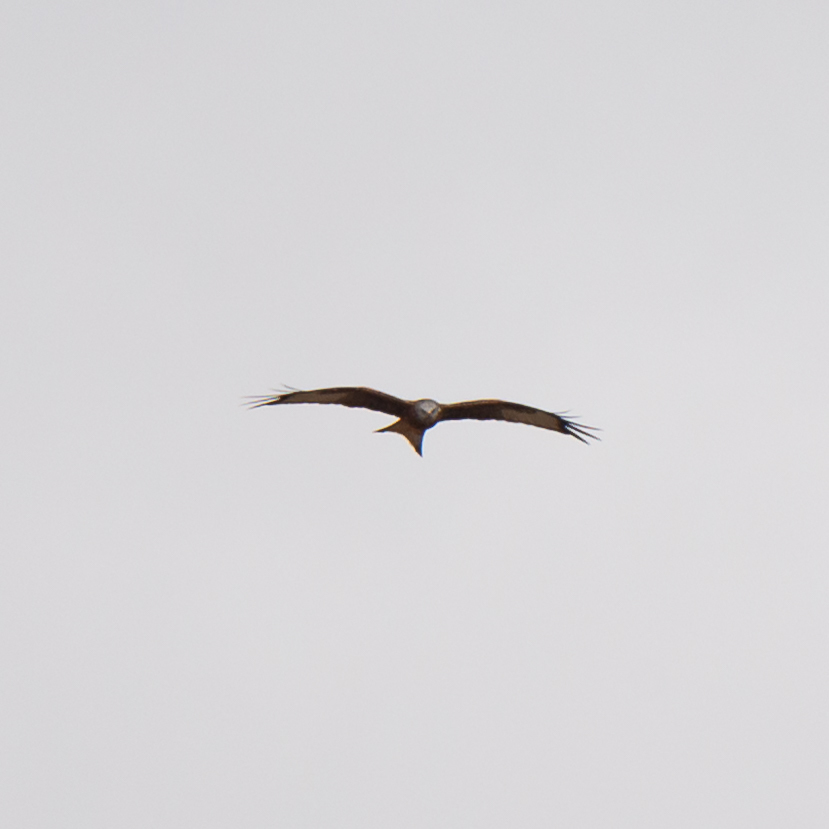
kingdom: Animalia
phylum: Chordata
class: Aves
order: Accipitriformes
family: Accipitridae
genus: Milvus
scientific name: Milvus milvus
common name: Red kite
